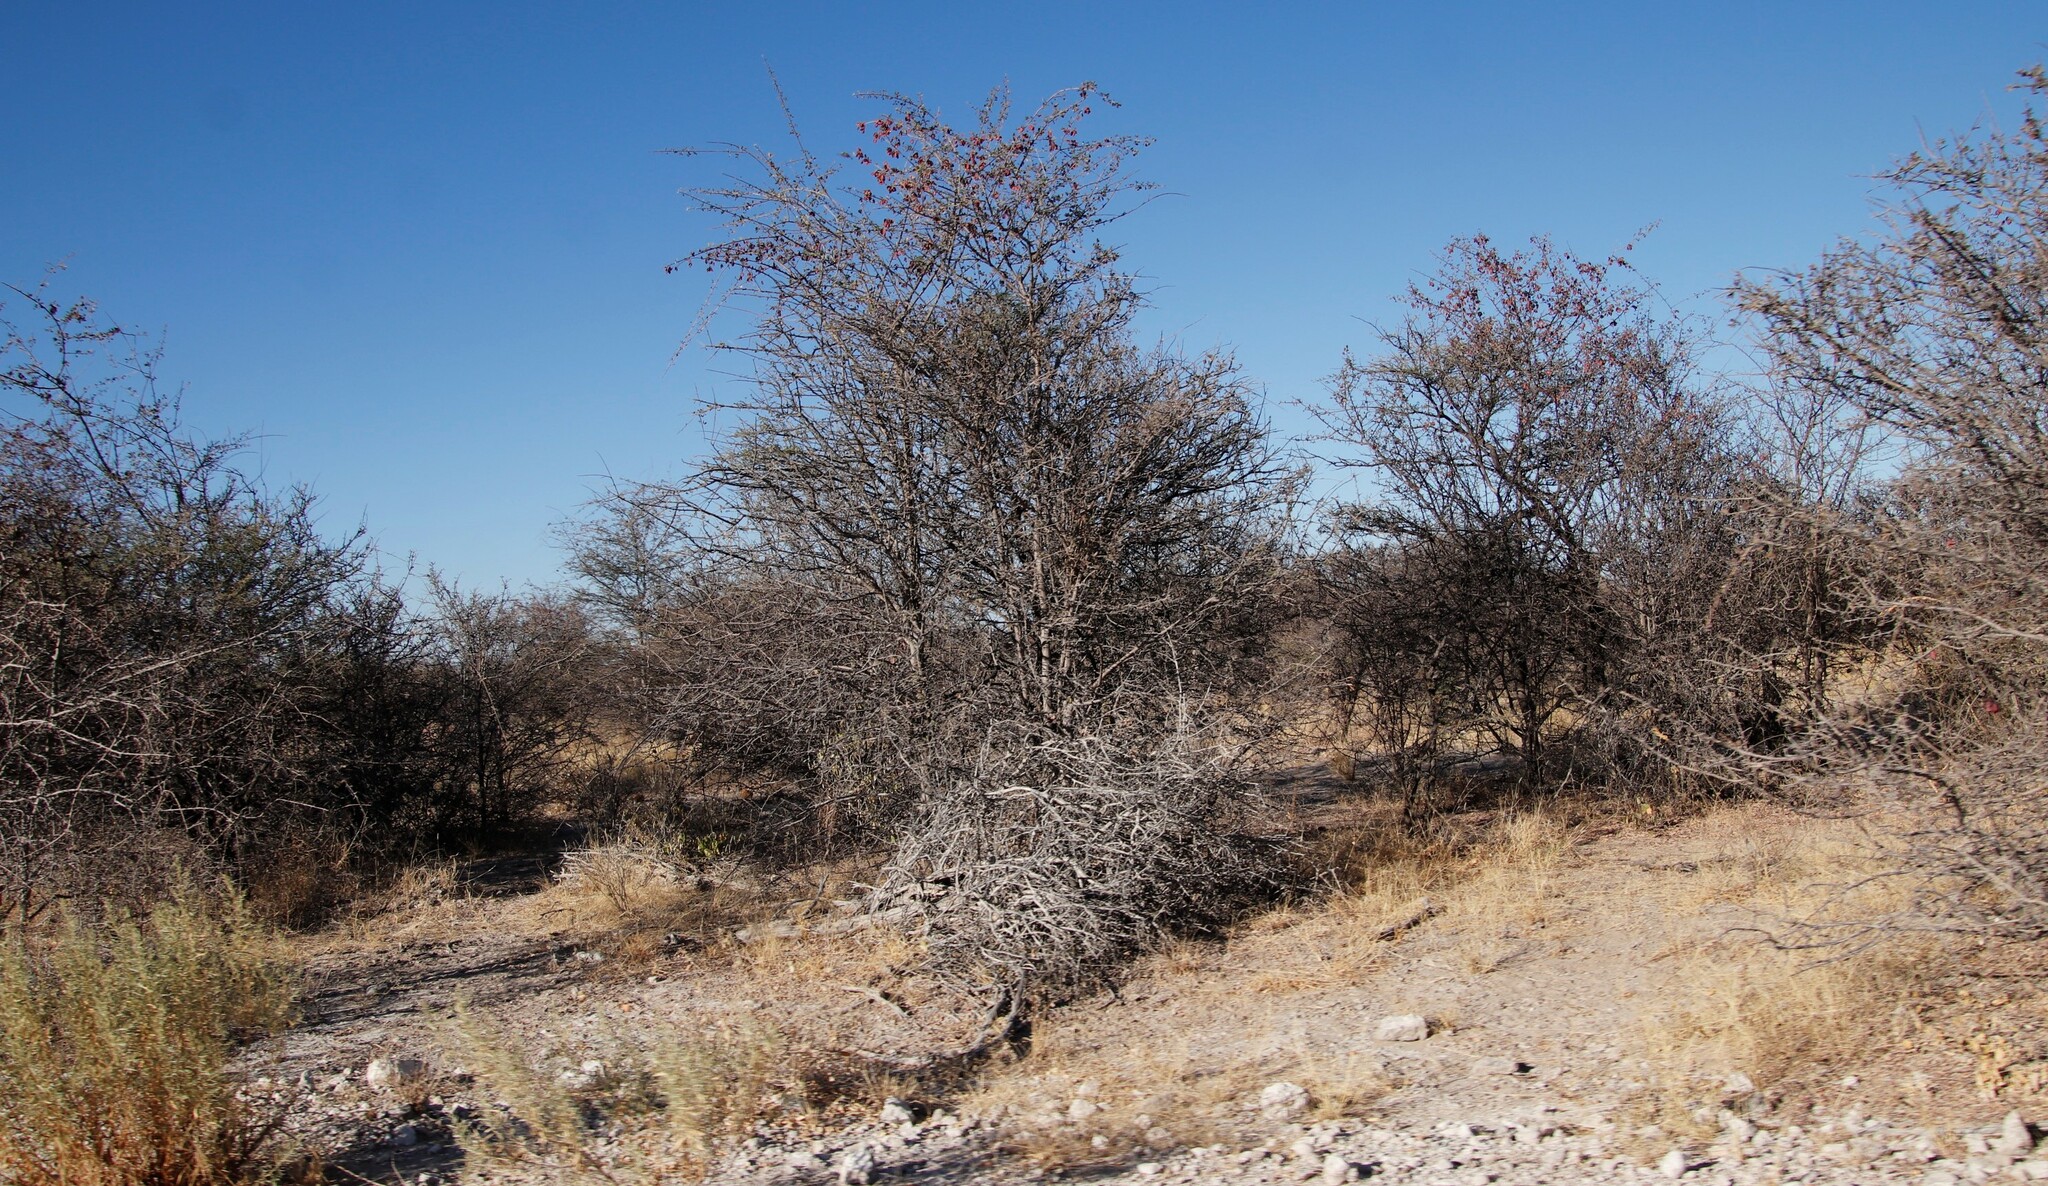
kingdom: Plantae
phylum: Tracheophyta
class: Magnoliopsida
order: Myrtales
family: Combretaceae
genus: Terminalia
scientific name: Terminalia prunioides
